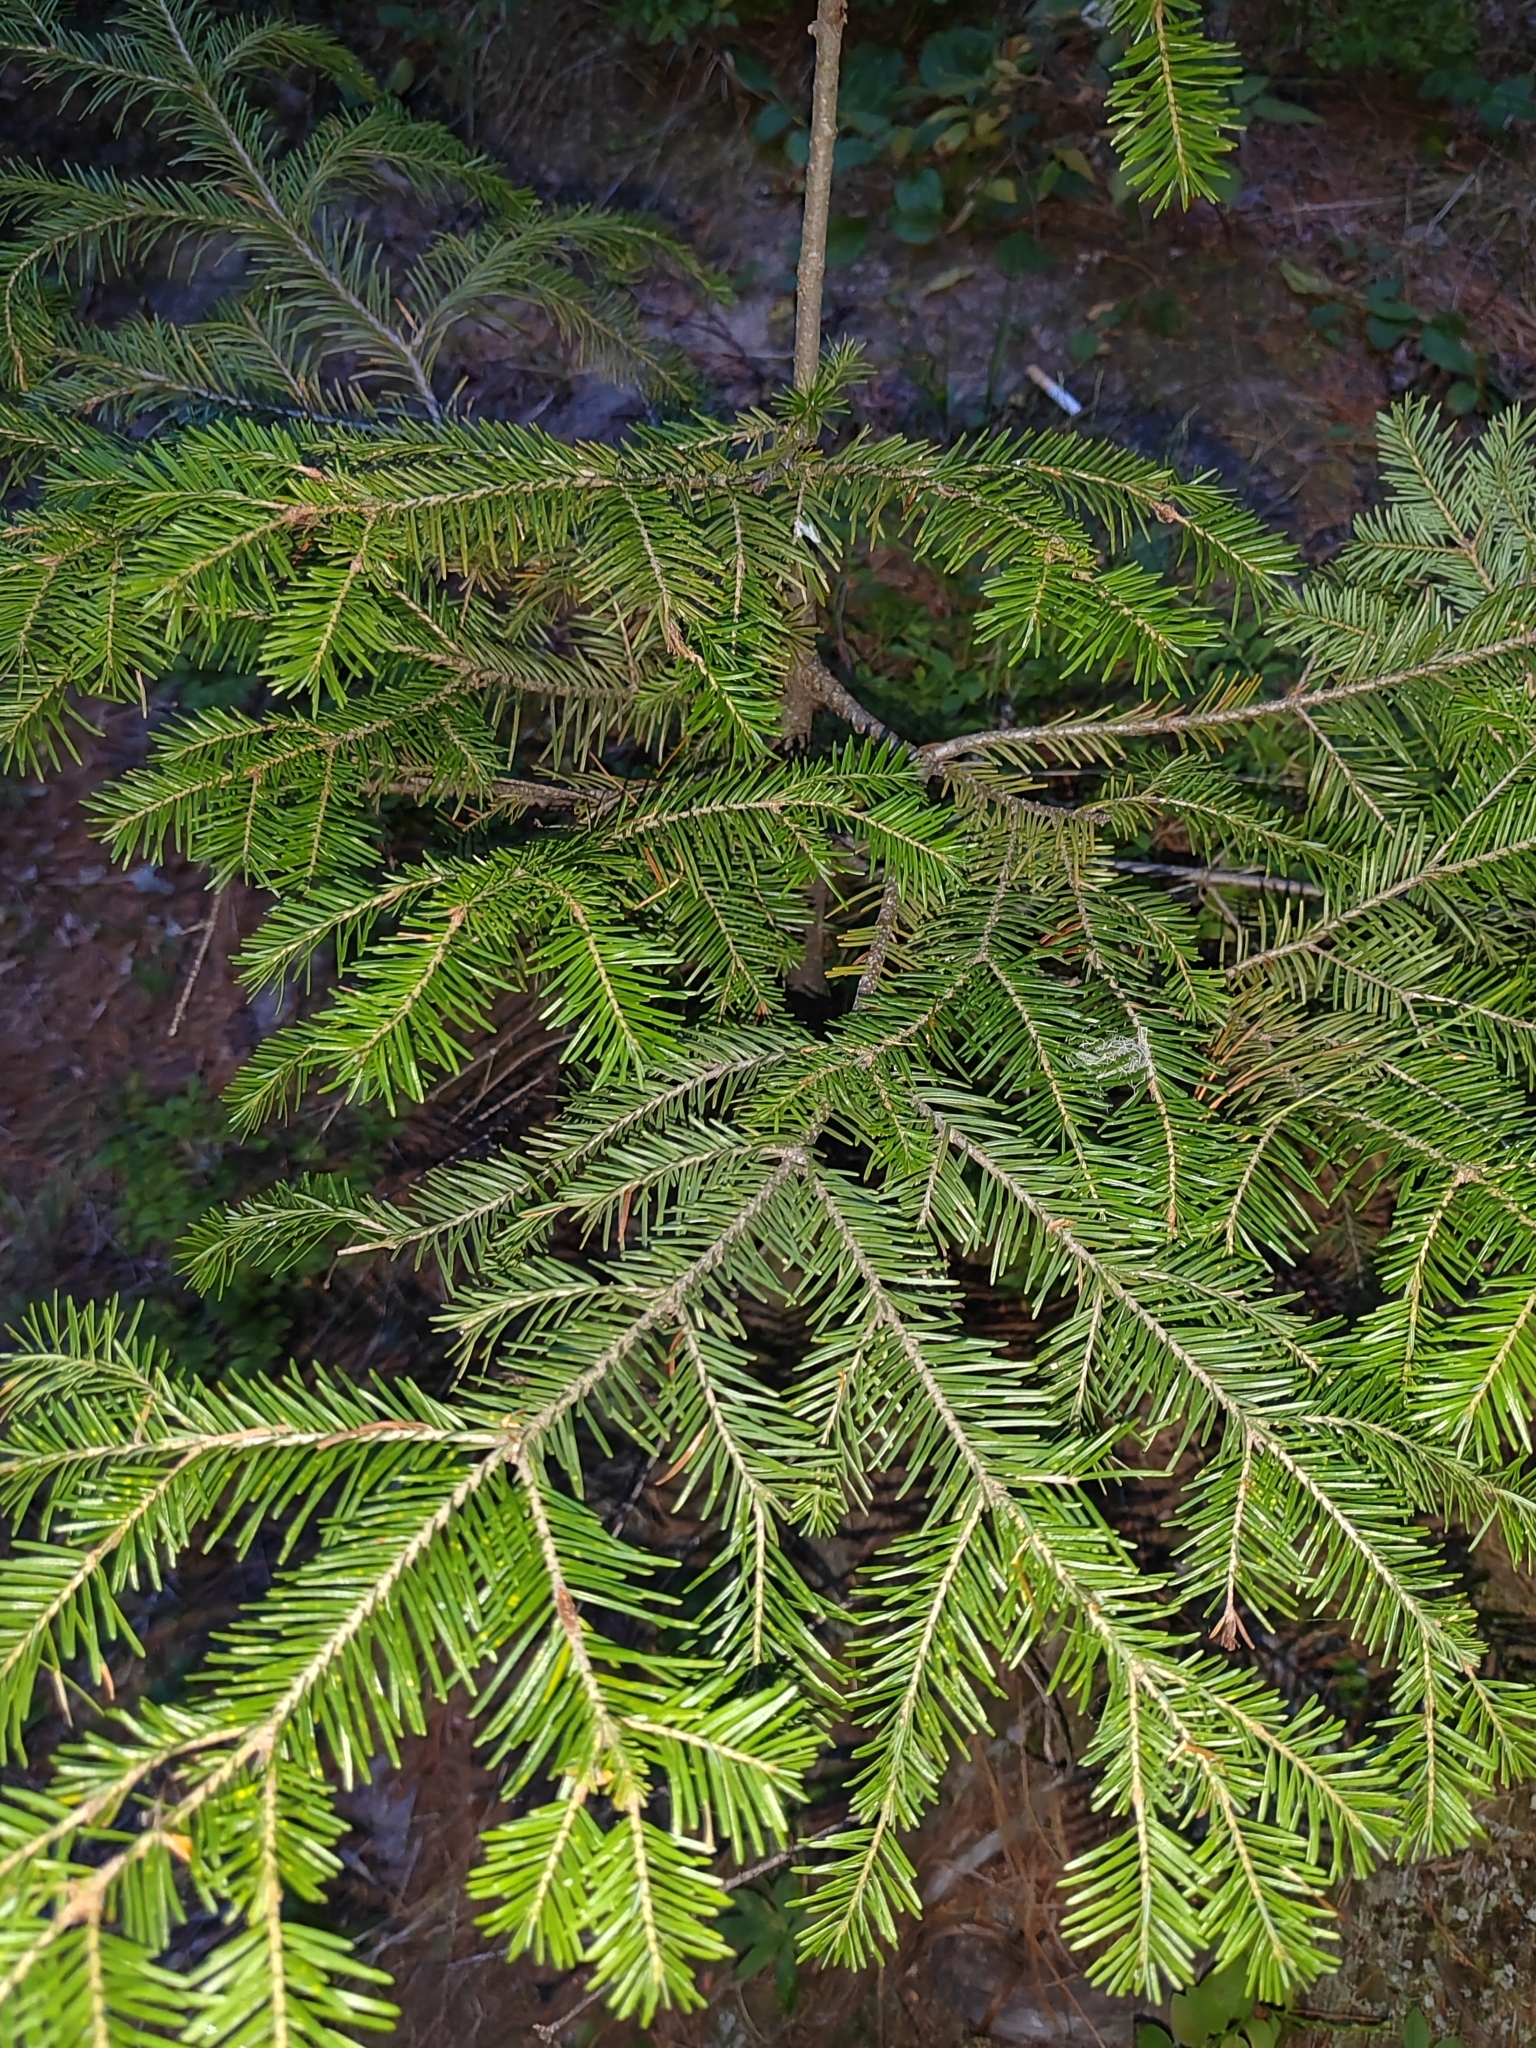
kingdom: Plantae
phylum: Tracheophyta
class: Pinopsida
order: Pinales
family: Pinaceae
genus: Abies
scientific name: Abies sibirica
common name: Siberian fir
